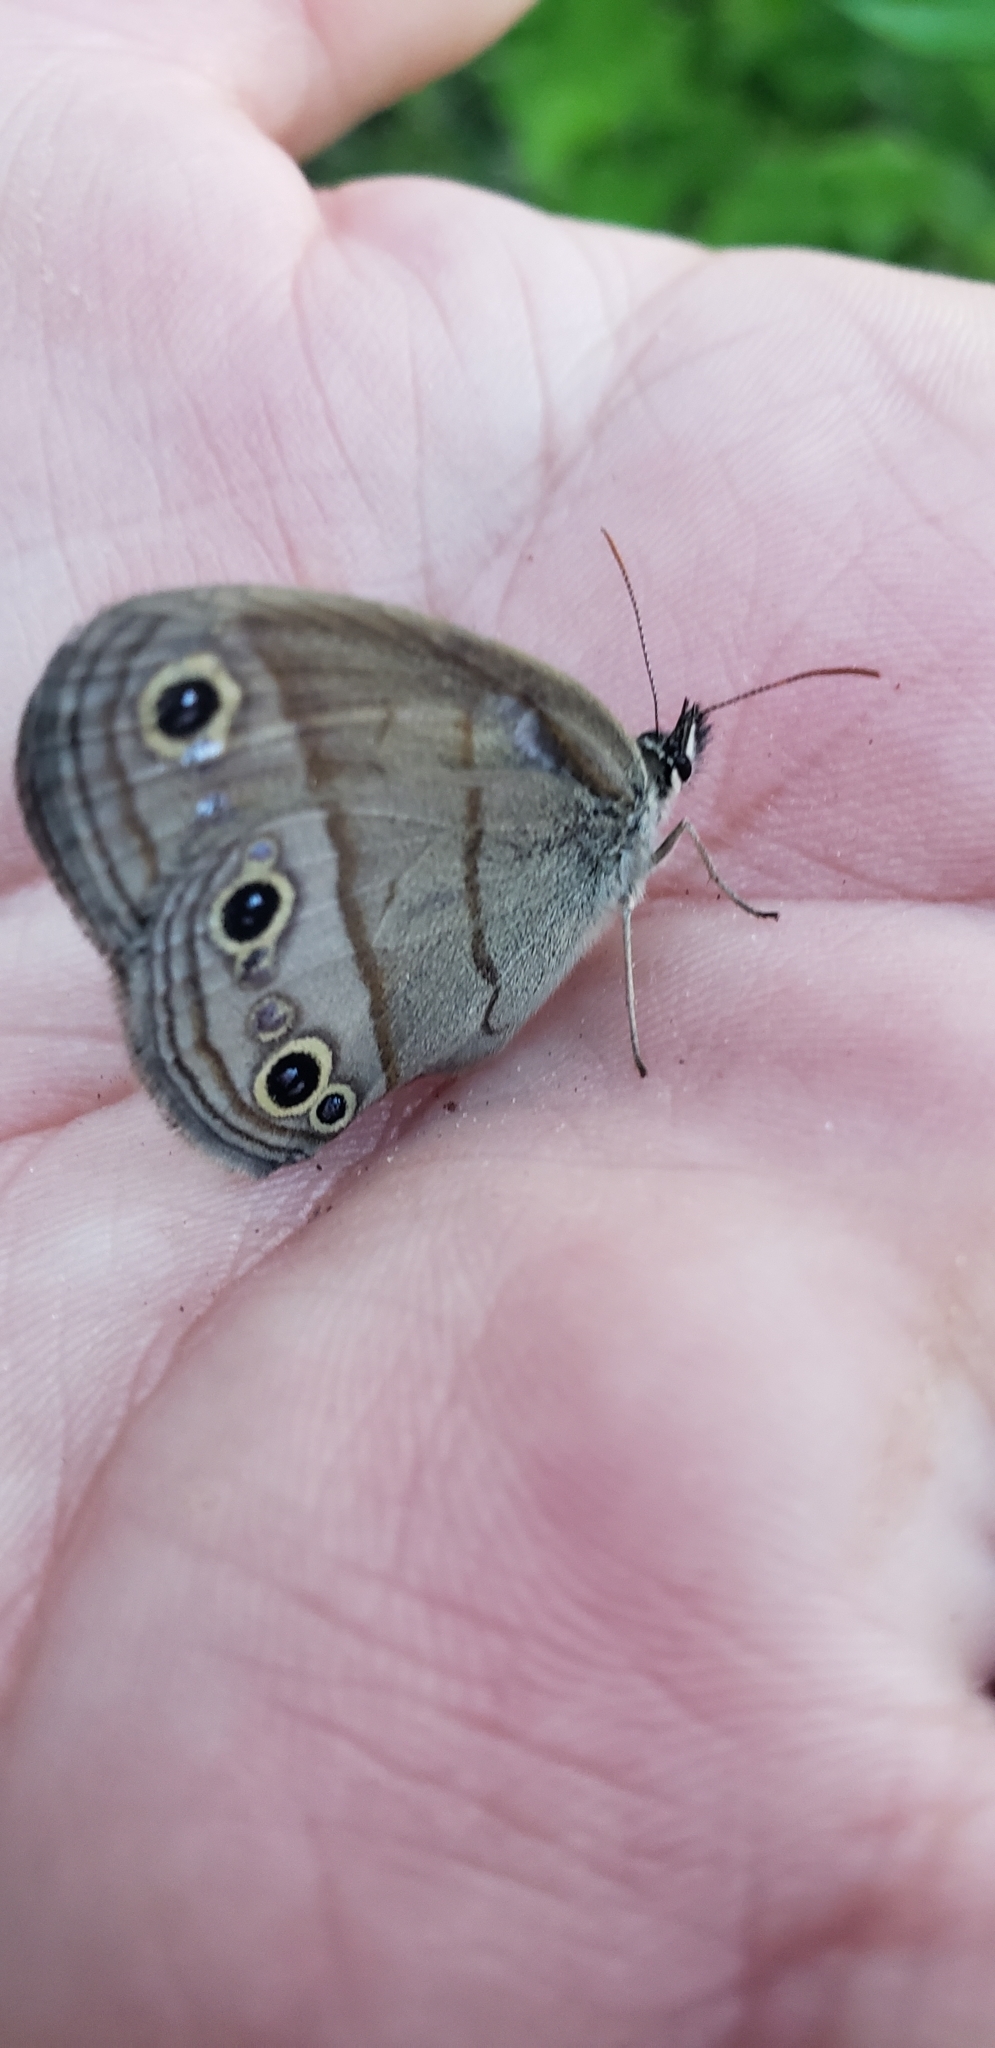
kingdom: Animalia
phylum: Arthropoda
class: Insecta
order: Lepidoptera
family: Nymphalidae
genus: Euptychia
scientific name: Euptychia cymela
